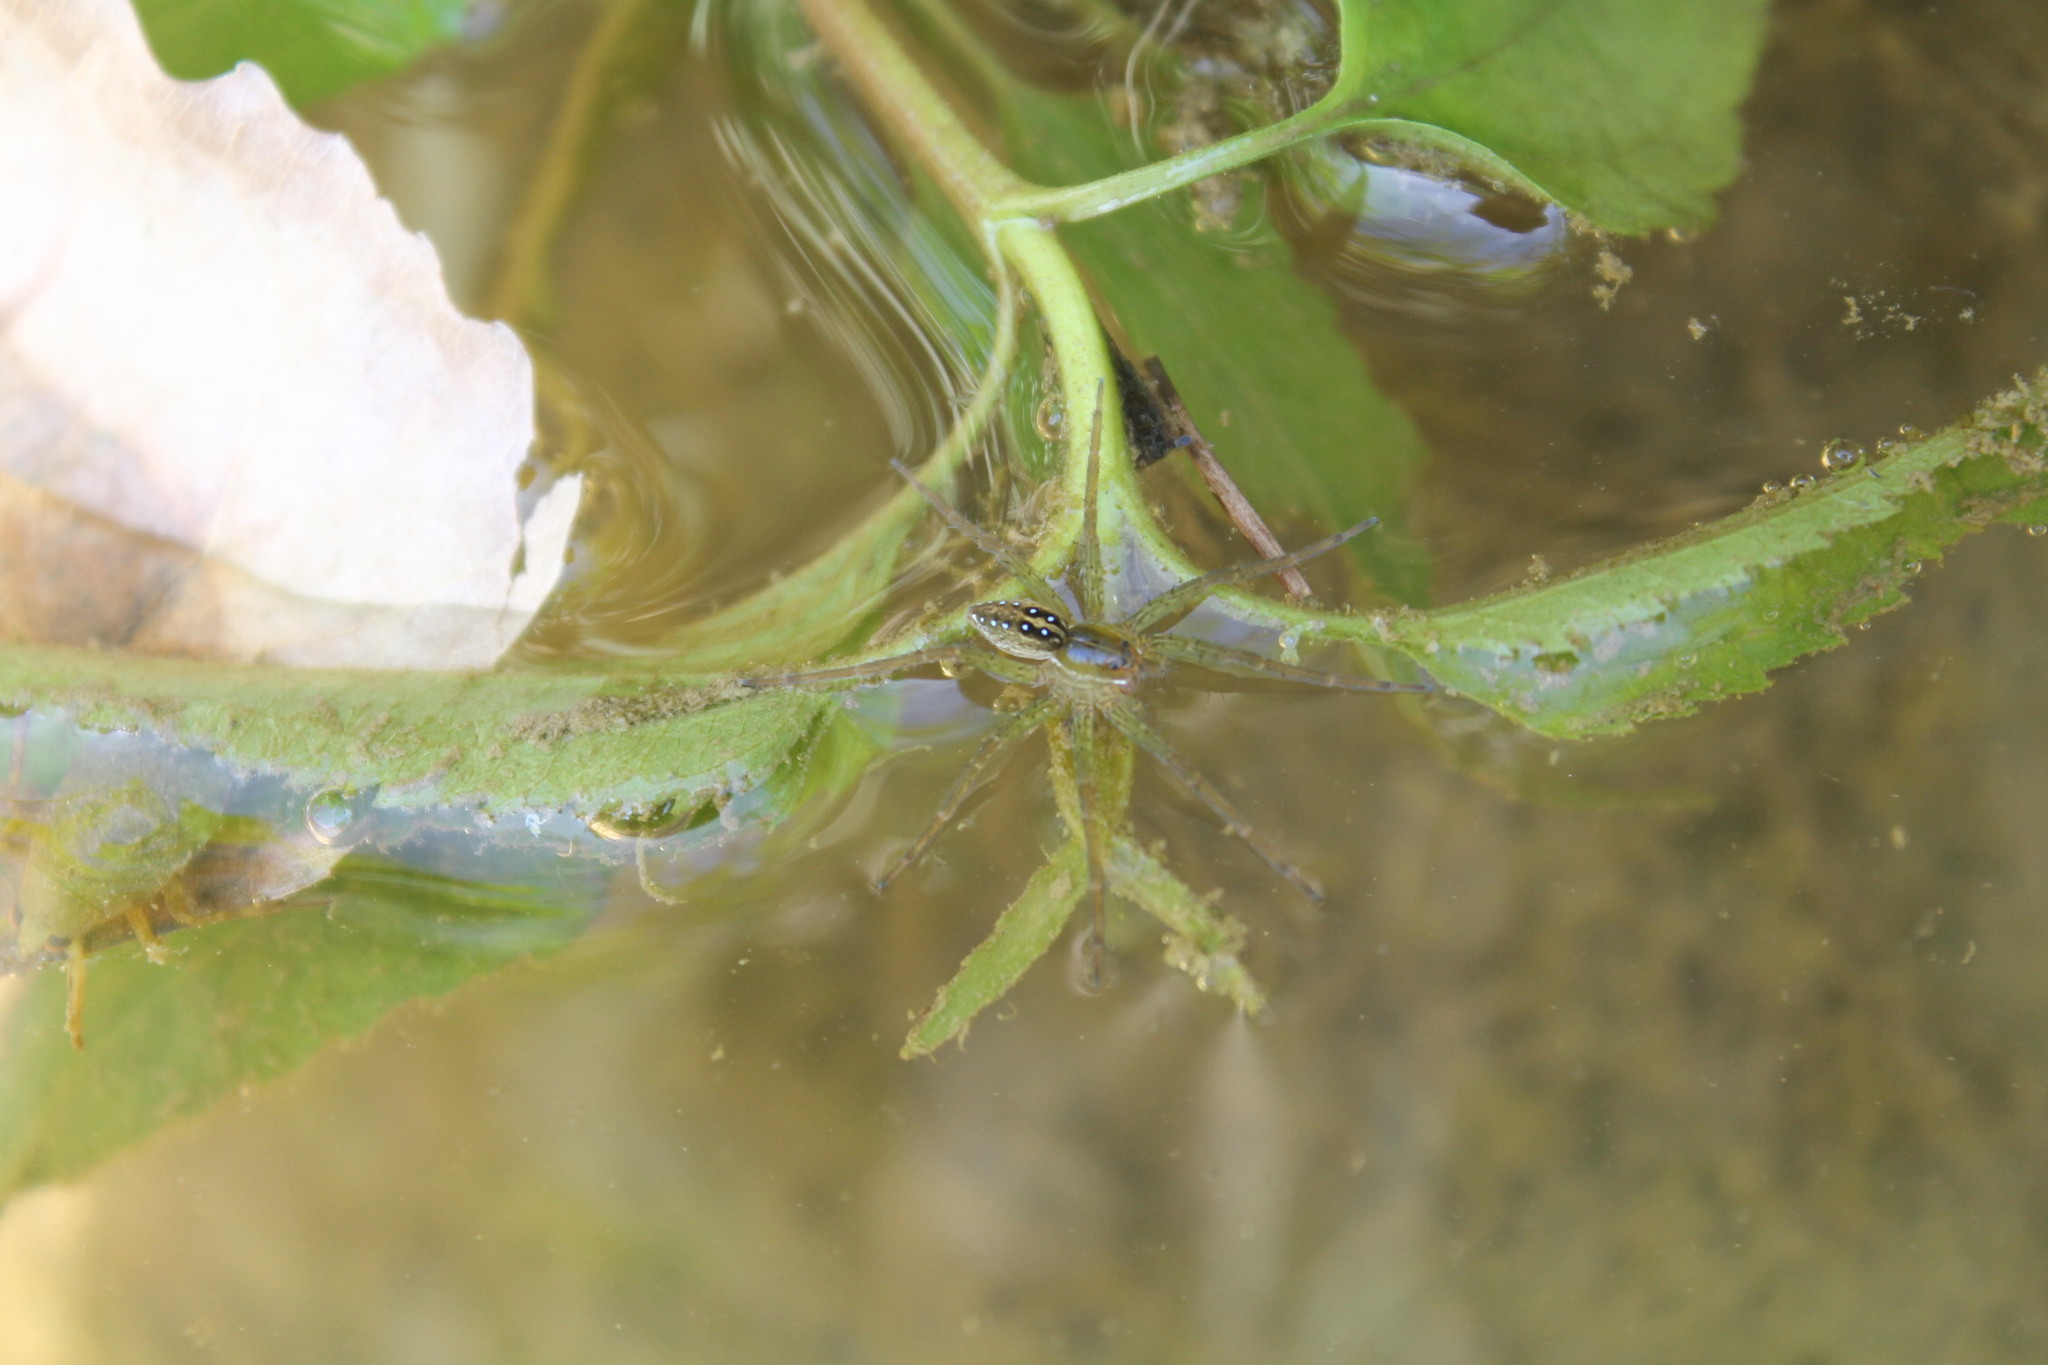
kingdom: Animalia
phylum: Arthropoda
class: Arachnida
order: Araneae
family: Pisauridae
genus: Dolomedes
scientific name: Dolomedes triton
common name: Six-spotted fishing spider
